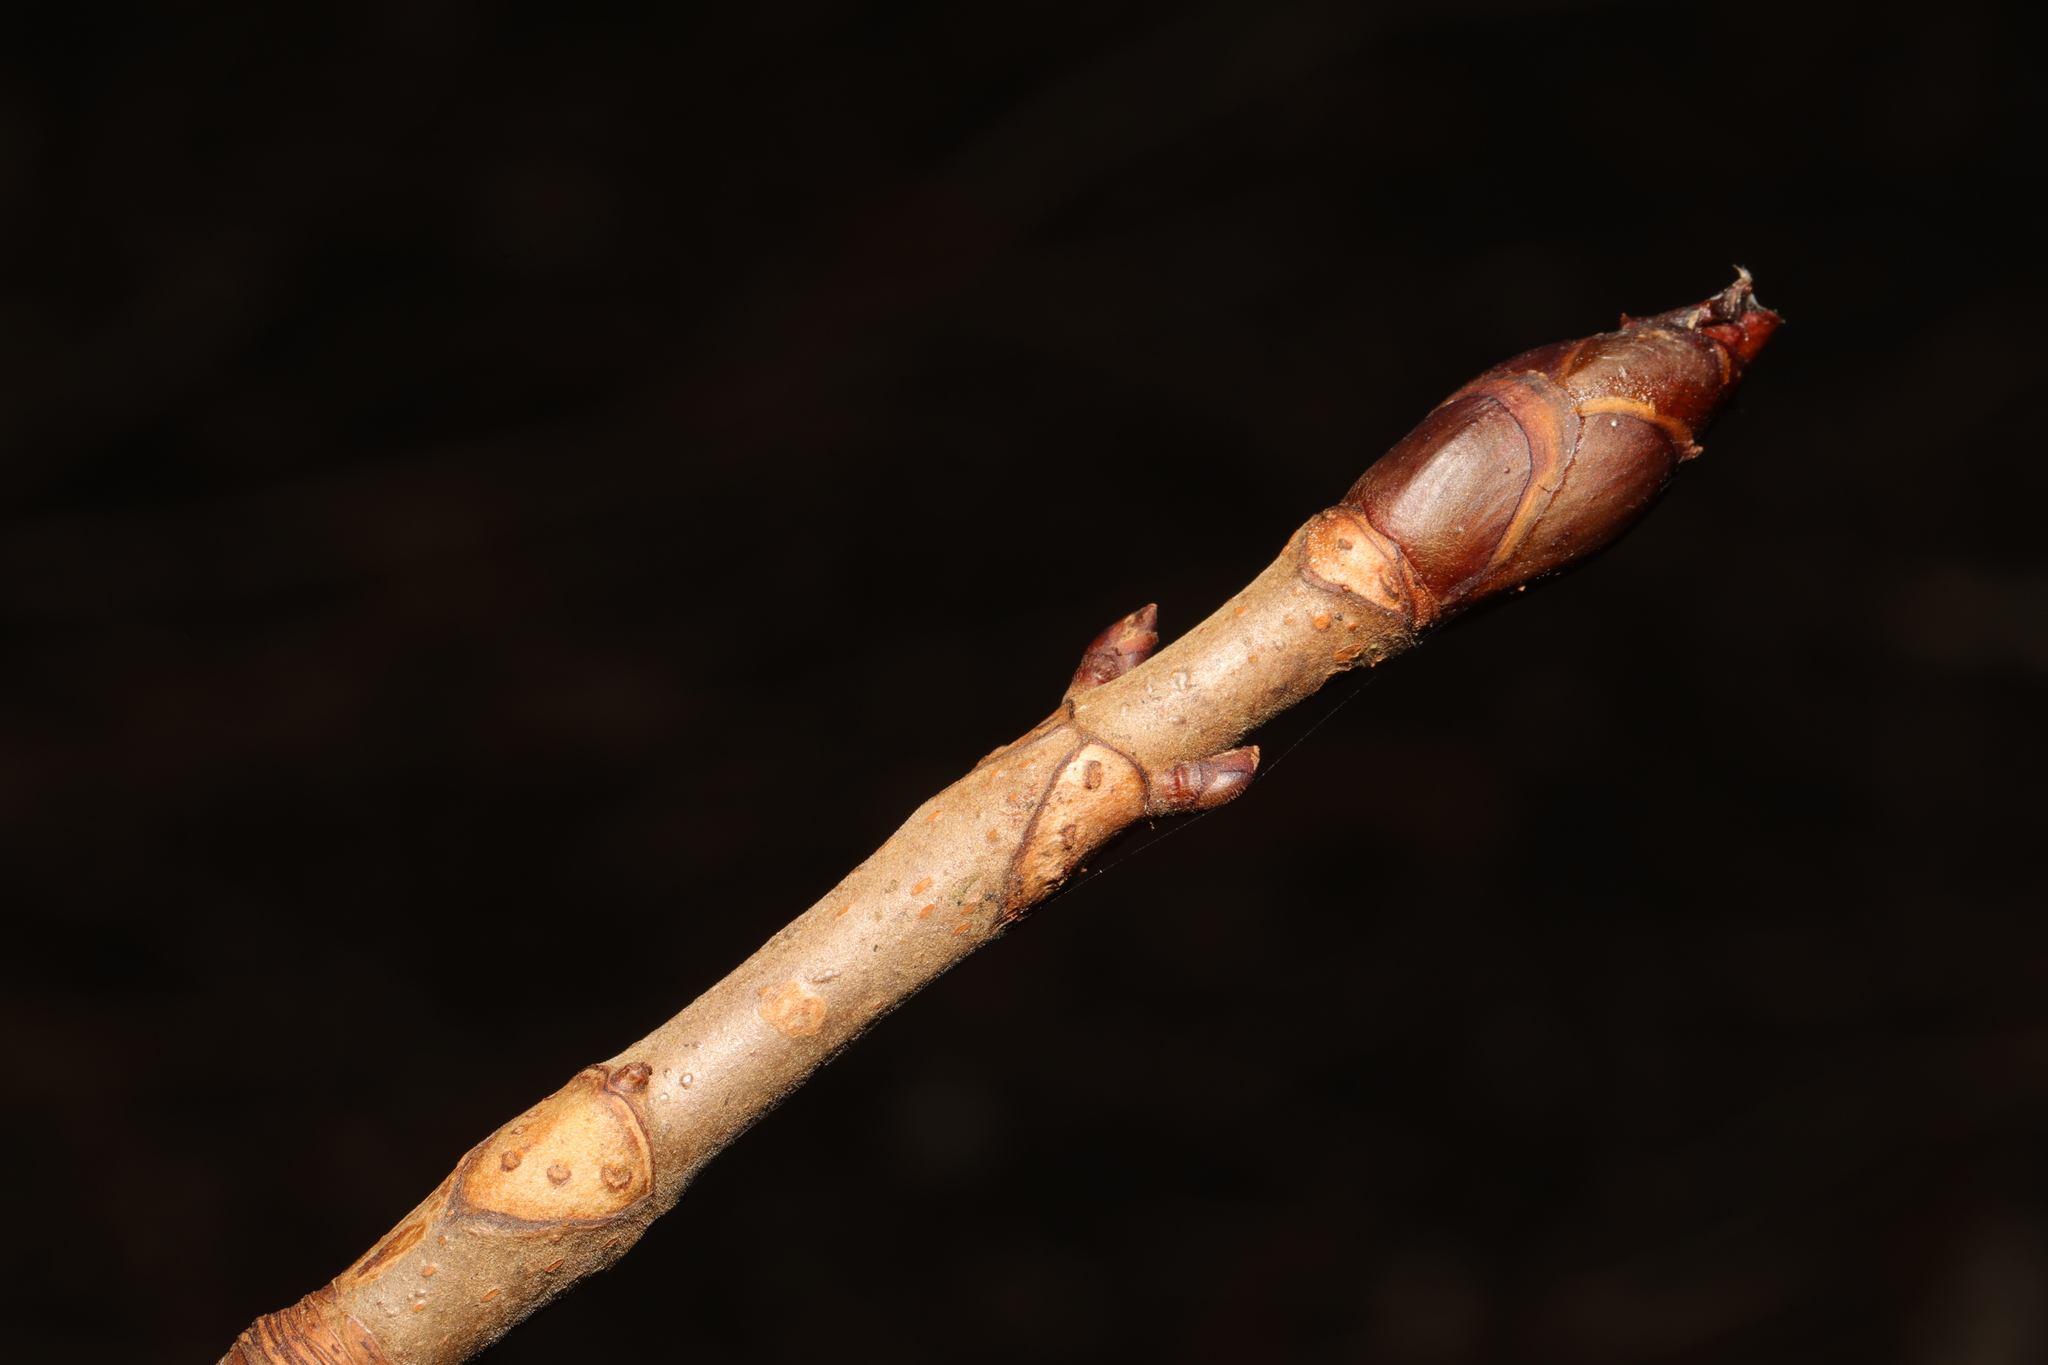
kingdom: Plantae
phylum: Tracheophyta
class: Magnoliopsida
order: Sapindales
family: Sapindaceae
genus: Aesculus
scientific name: Aesculus hippocastanum
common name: Horse-chestnut
